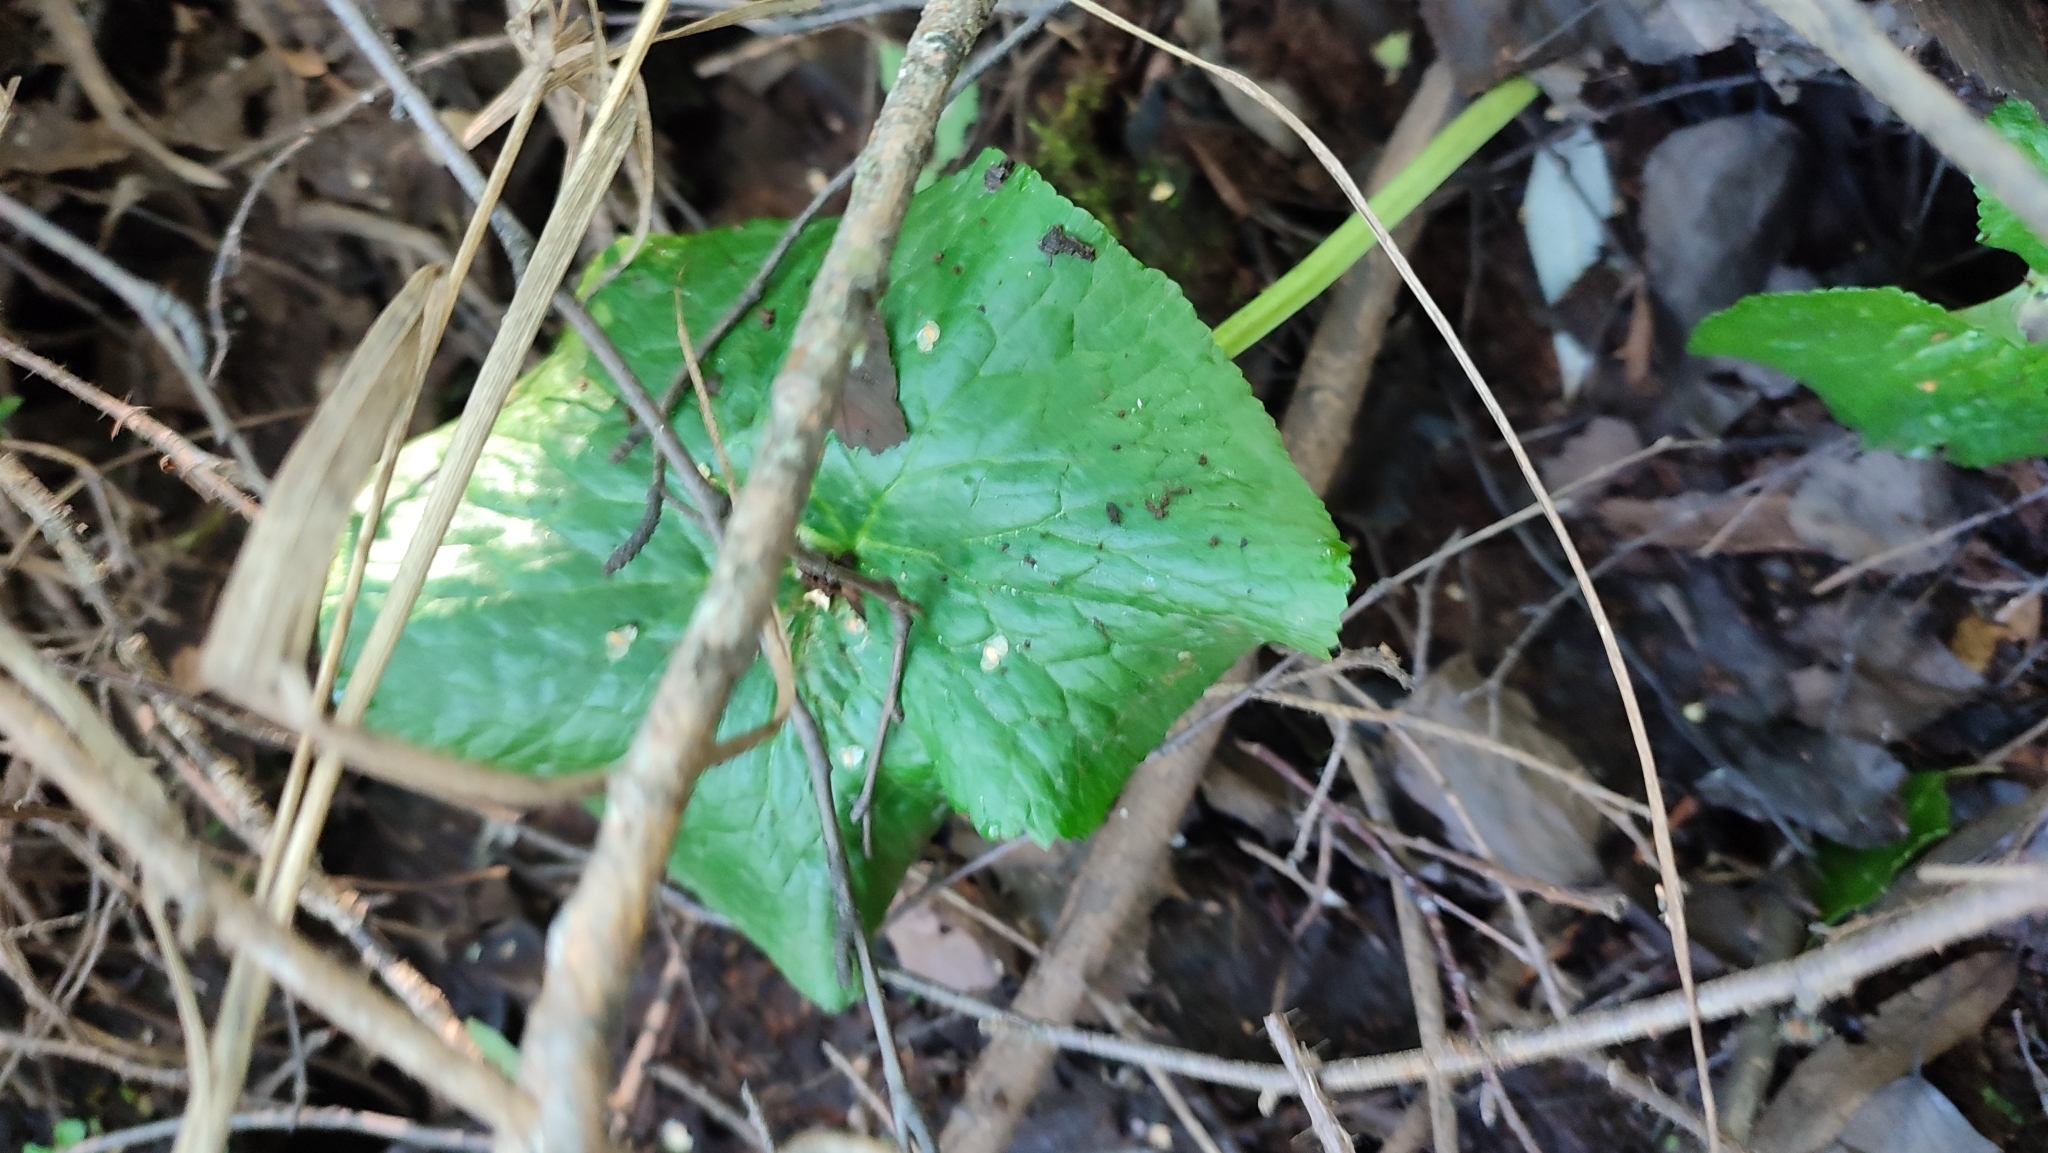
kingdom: Plantae
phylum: Tracheophyta
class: Magnoliopsida
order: Ranunculales
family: Ranunculaceae
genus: Caltha
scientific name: Caltha palustris
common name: Marsh marigold
